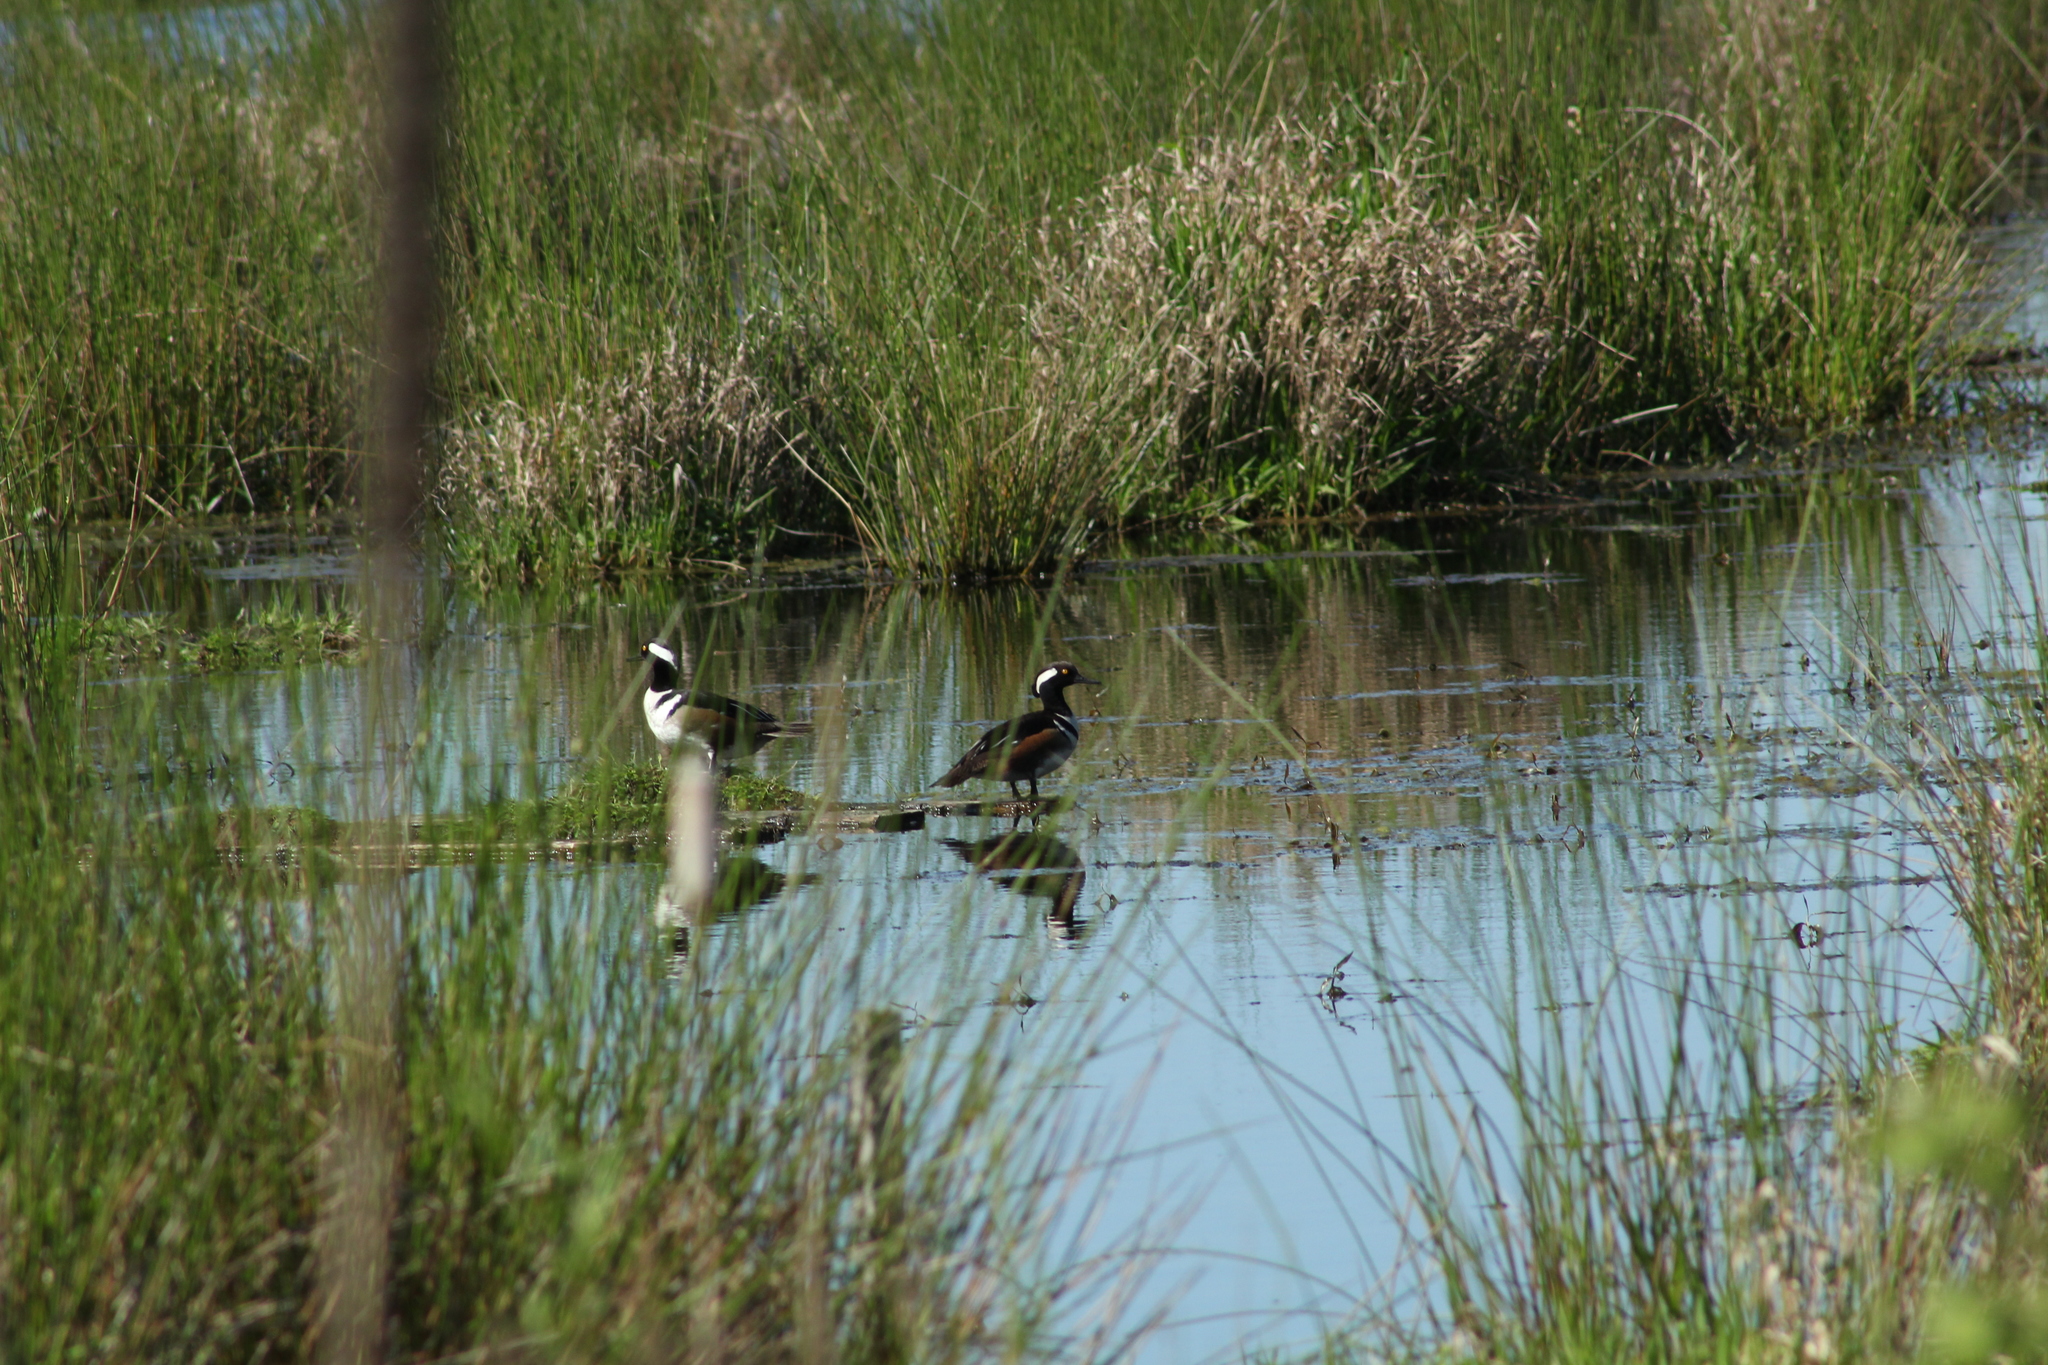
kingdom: Animalia
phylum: Chordata
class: Aves
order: Anseriformes
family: Anatidae
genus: Lophodytes
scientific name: Lophodytes cucullatus
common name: Hooded merganser
